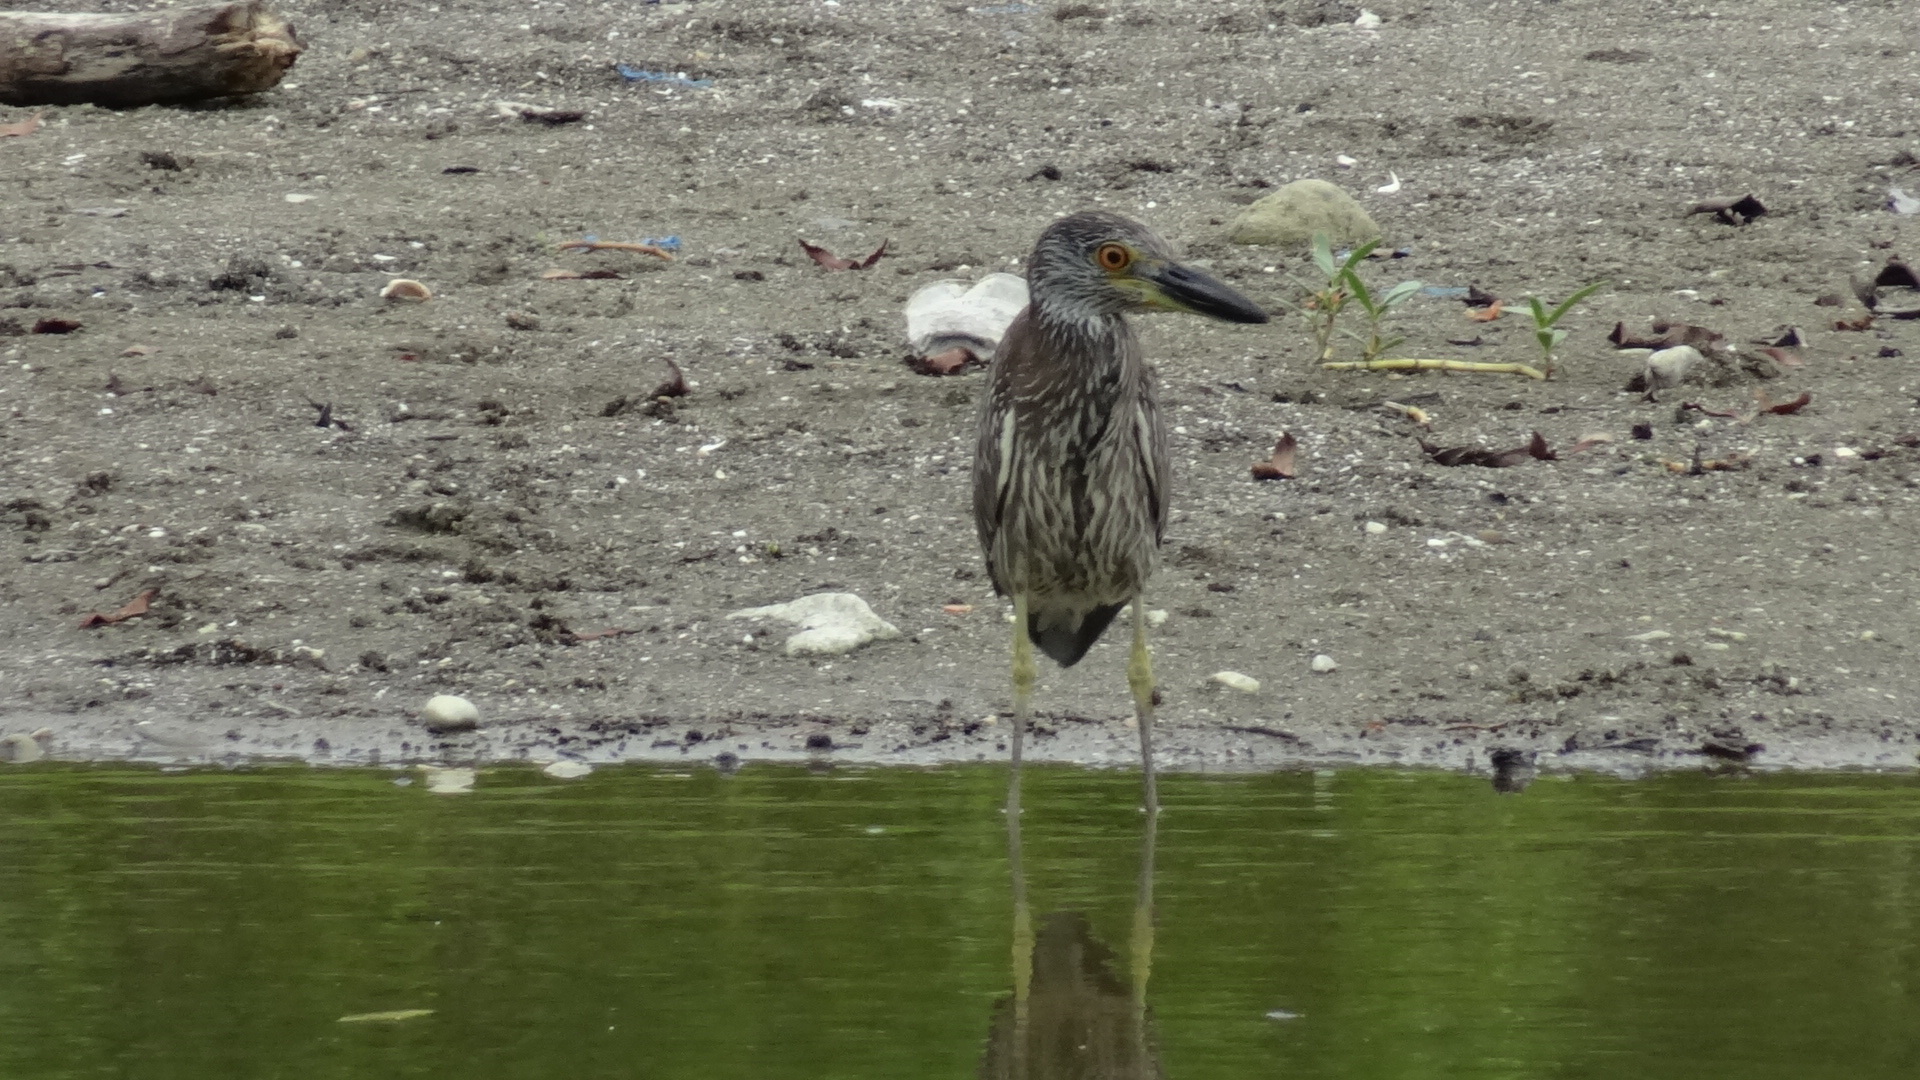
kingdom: Animalia
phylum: Chordata
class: Aves
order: Pelecaniformes
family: Ardeidae
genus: Nyctanassa
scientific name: Nyctanassa violacea
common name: Yellow-crowned night heron
